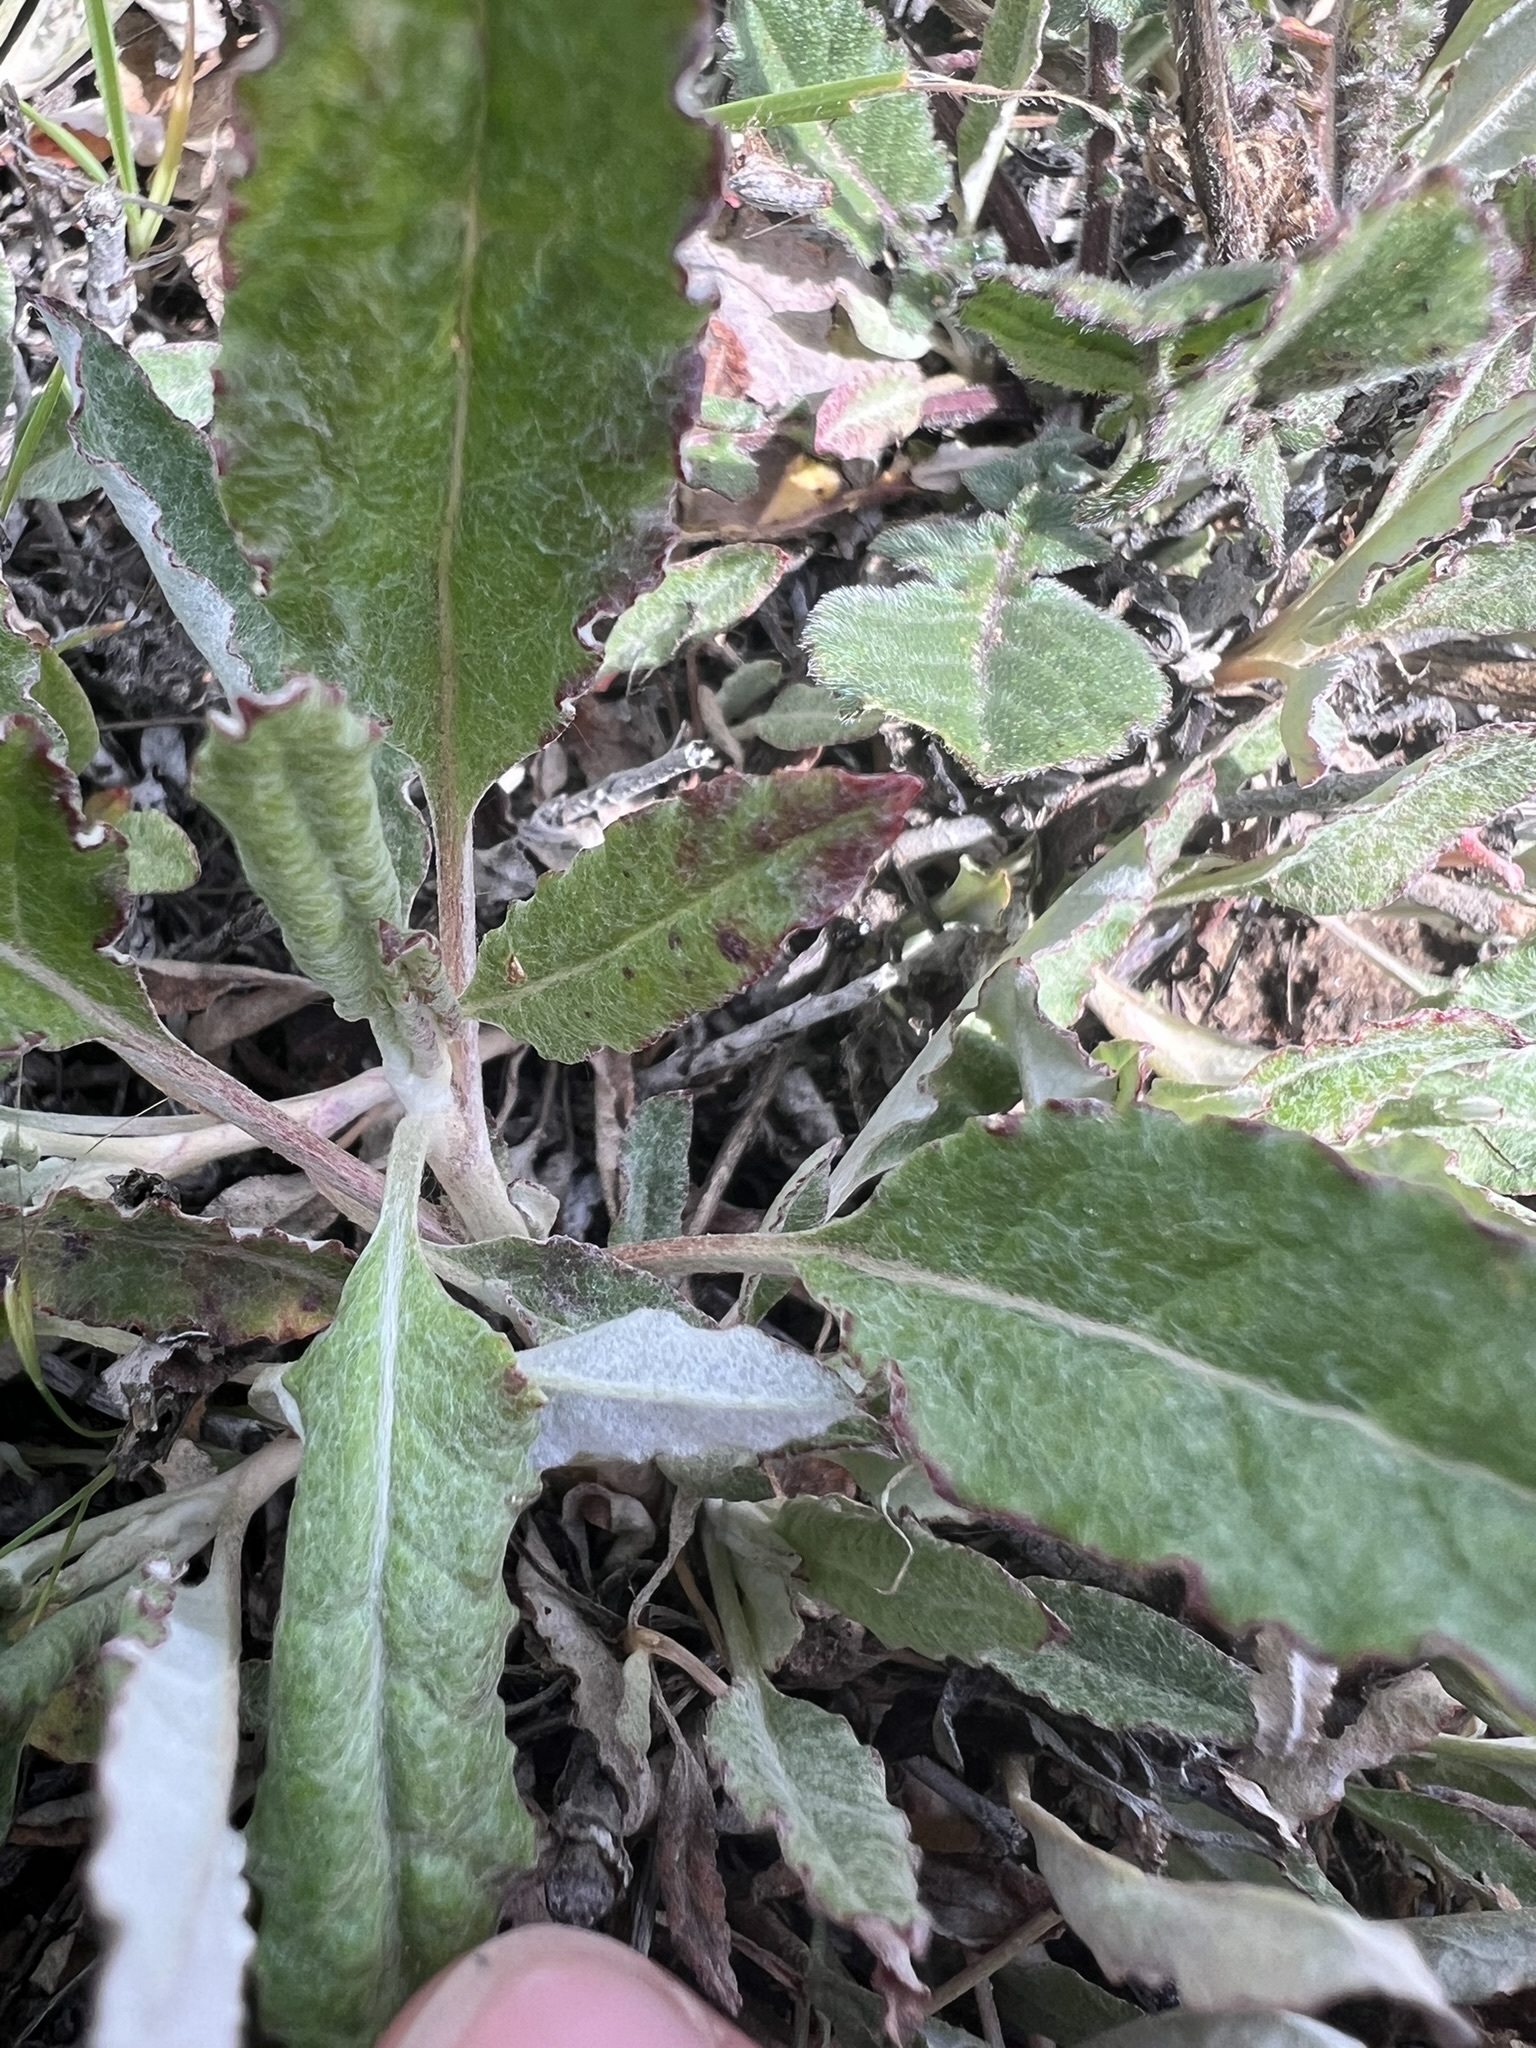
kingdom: Plantae
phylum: Tracheophyta
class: Magnoliopsida
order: Caryophyllales
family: Polygonaceae
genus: Eriogonum
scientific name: Eriogonum elongatum
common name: Long-stem wild buckwheat
